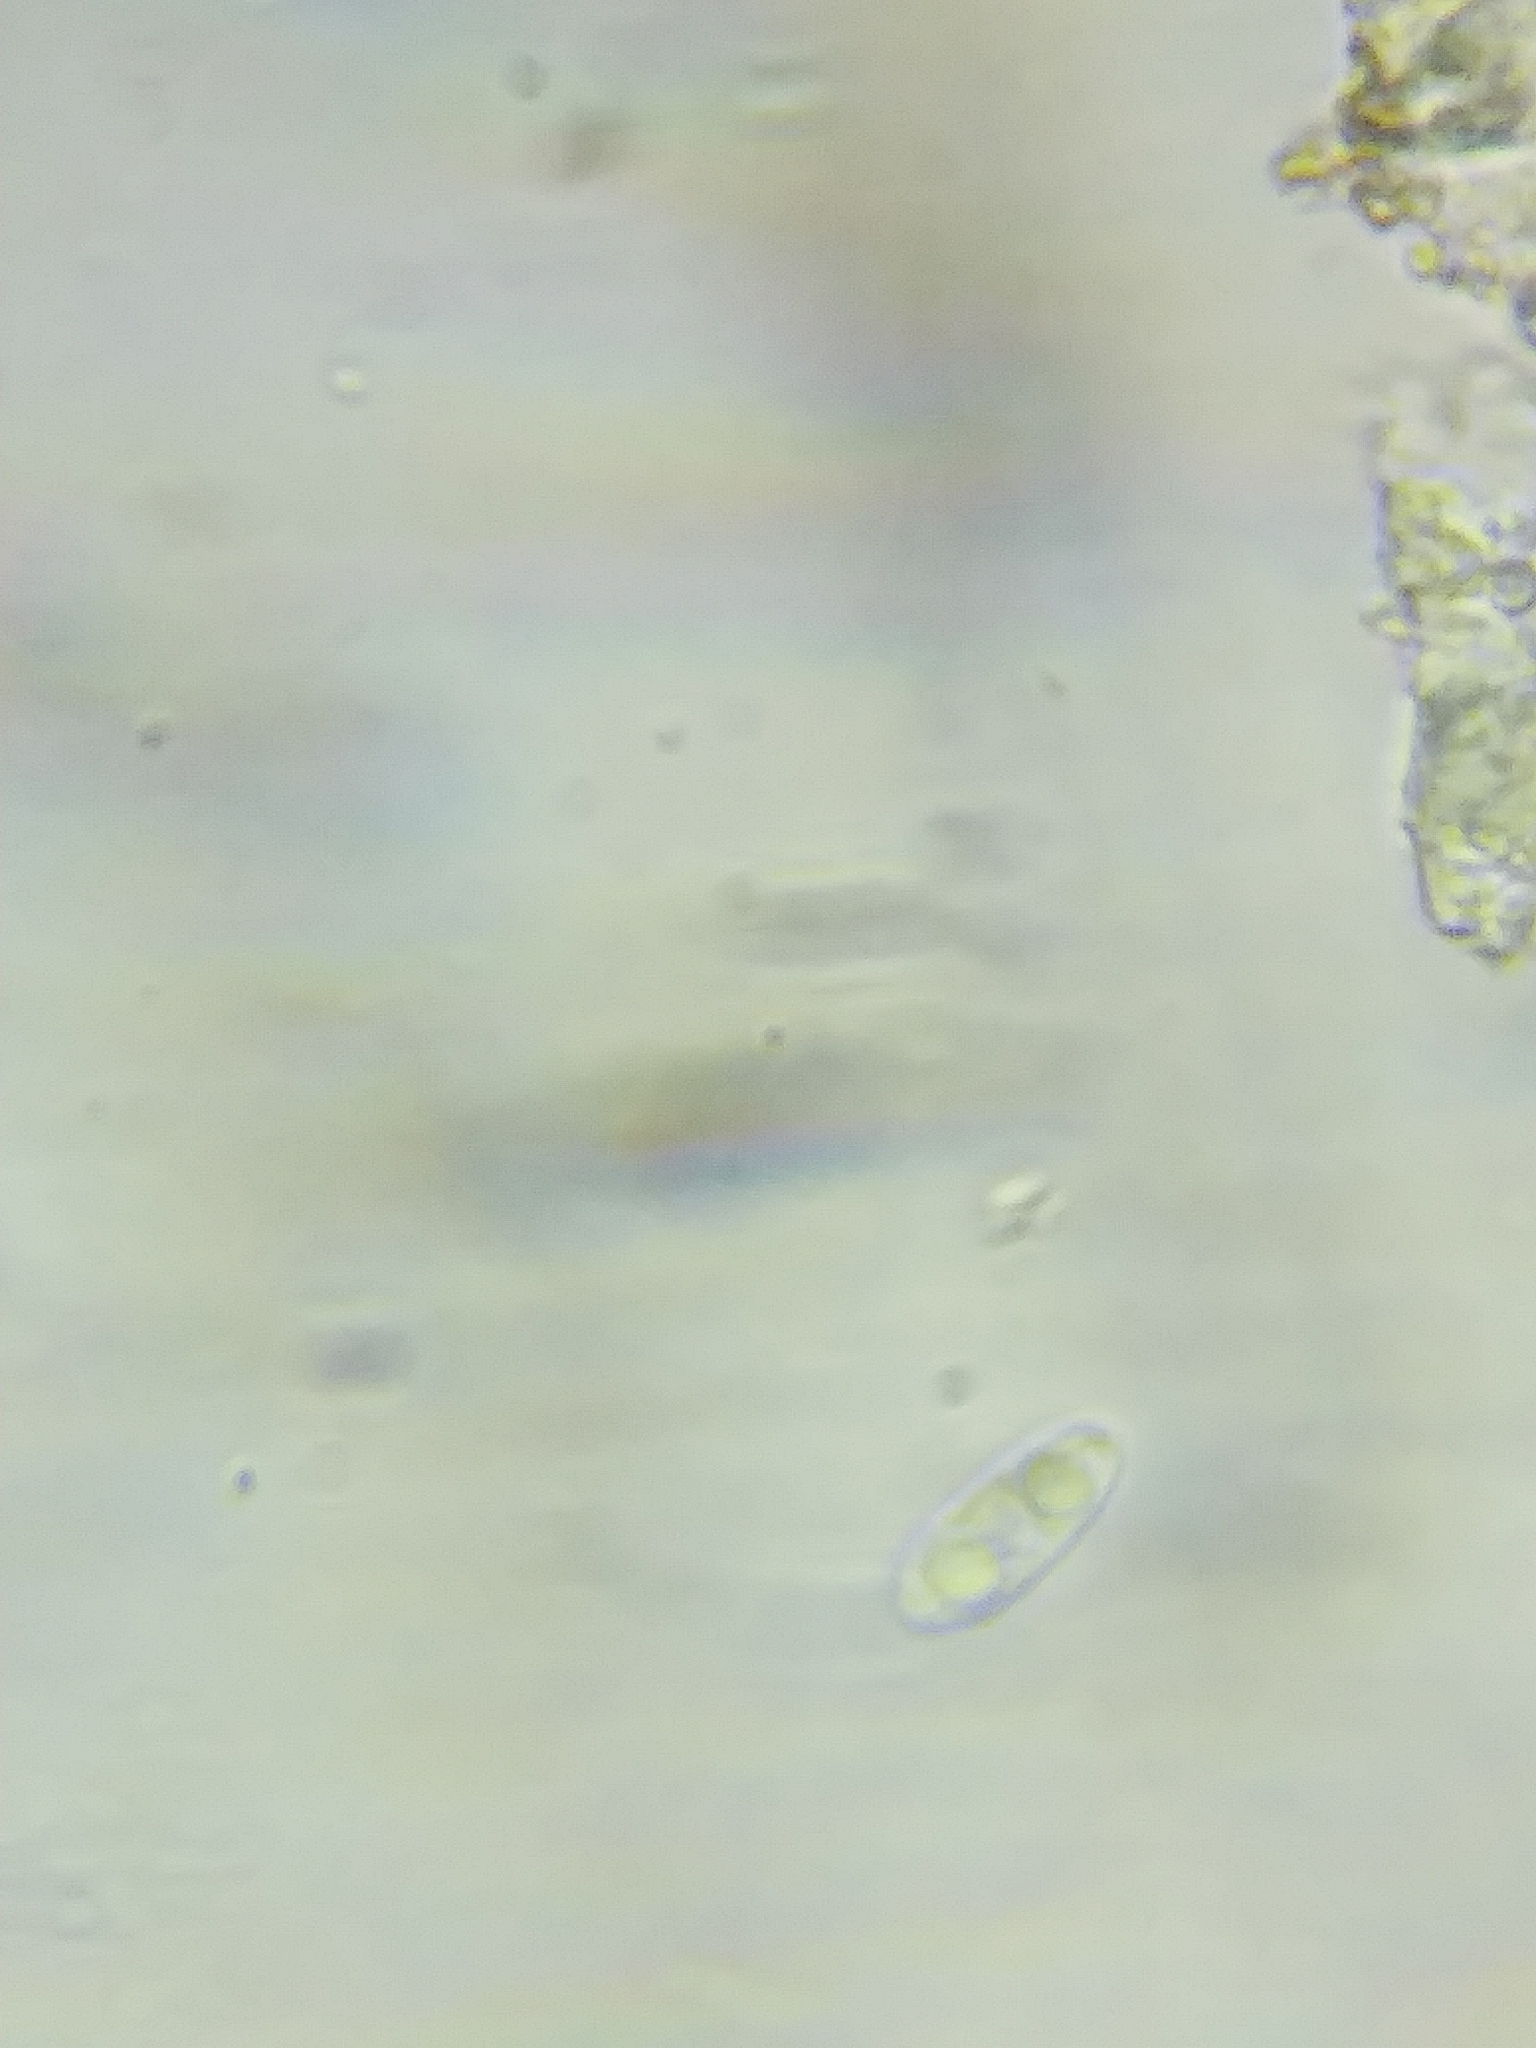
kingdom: Fungi
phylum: Ascomycota
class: Leotiomycetes
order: Helotiales
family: Cenangiaceae
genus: Chlorencoelia
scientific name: Chlorencoelia torta
